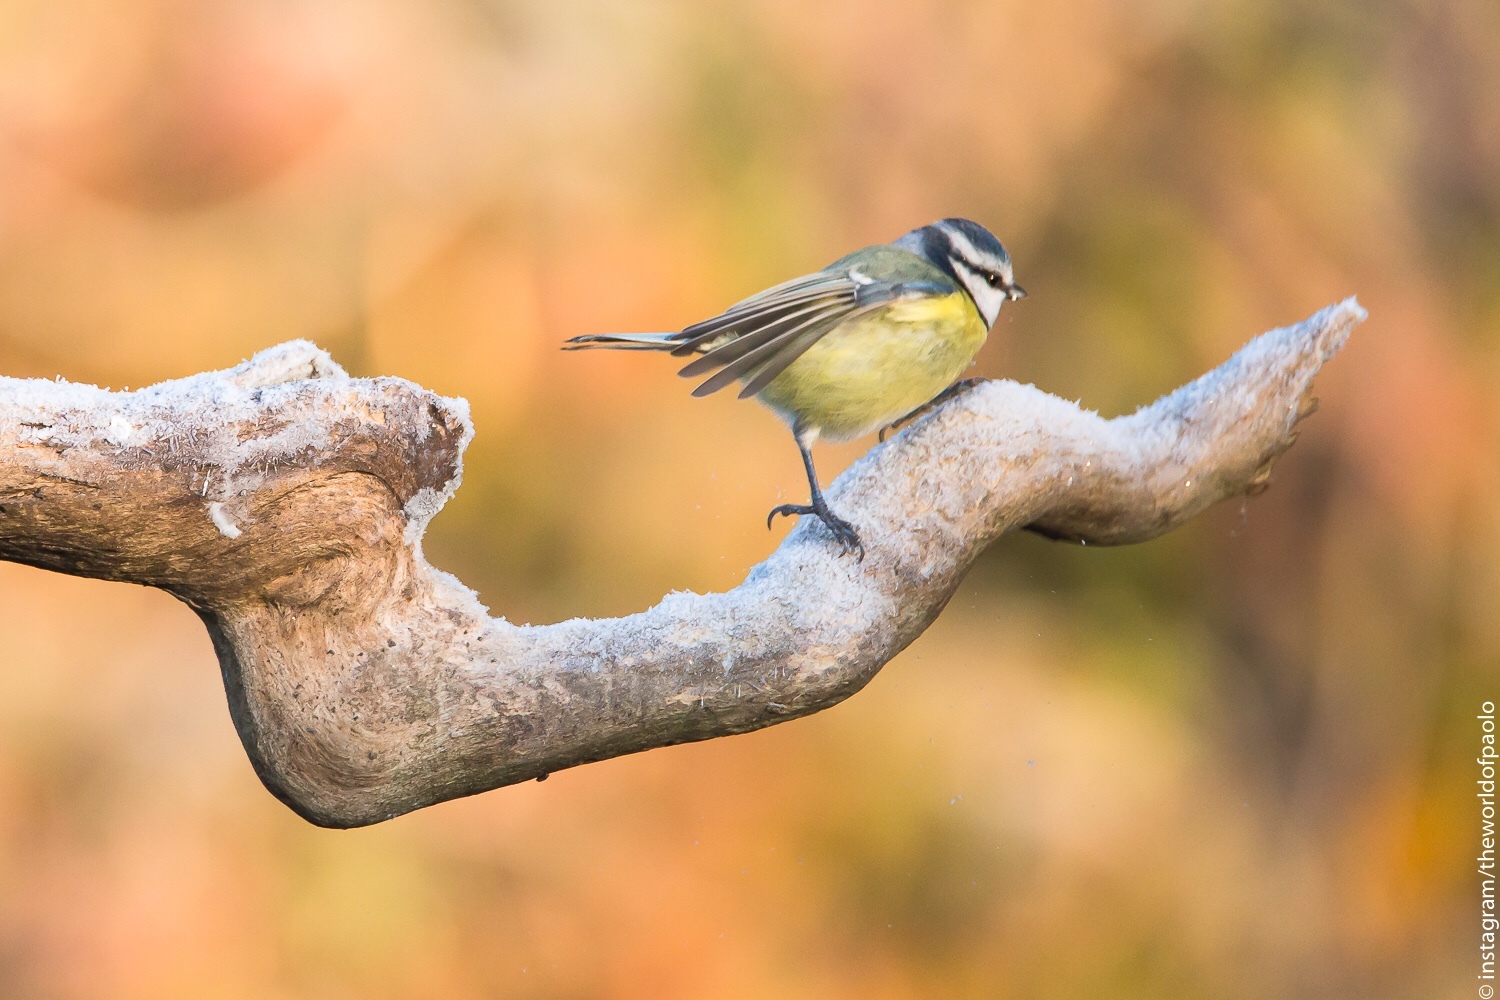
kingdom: Animalia
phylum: Chordata
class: Aves
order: Passeriformes
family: Paridae
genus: Cyanistes
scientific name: Cyanistes caeruleus
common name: Eurasian blue tit
